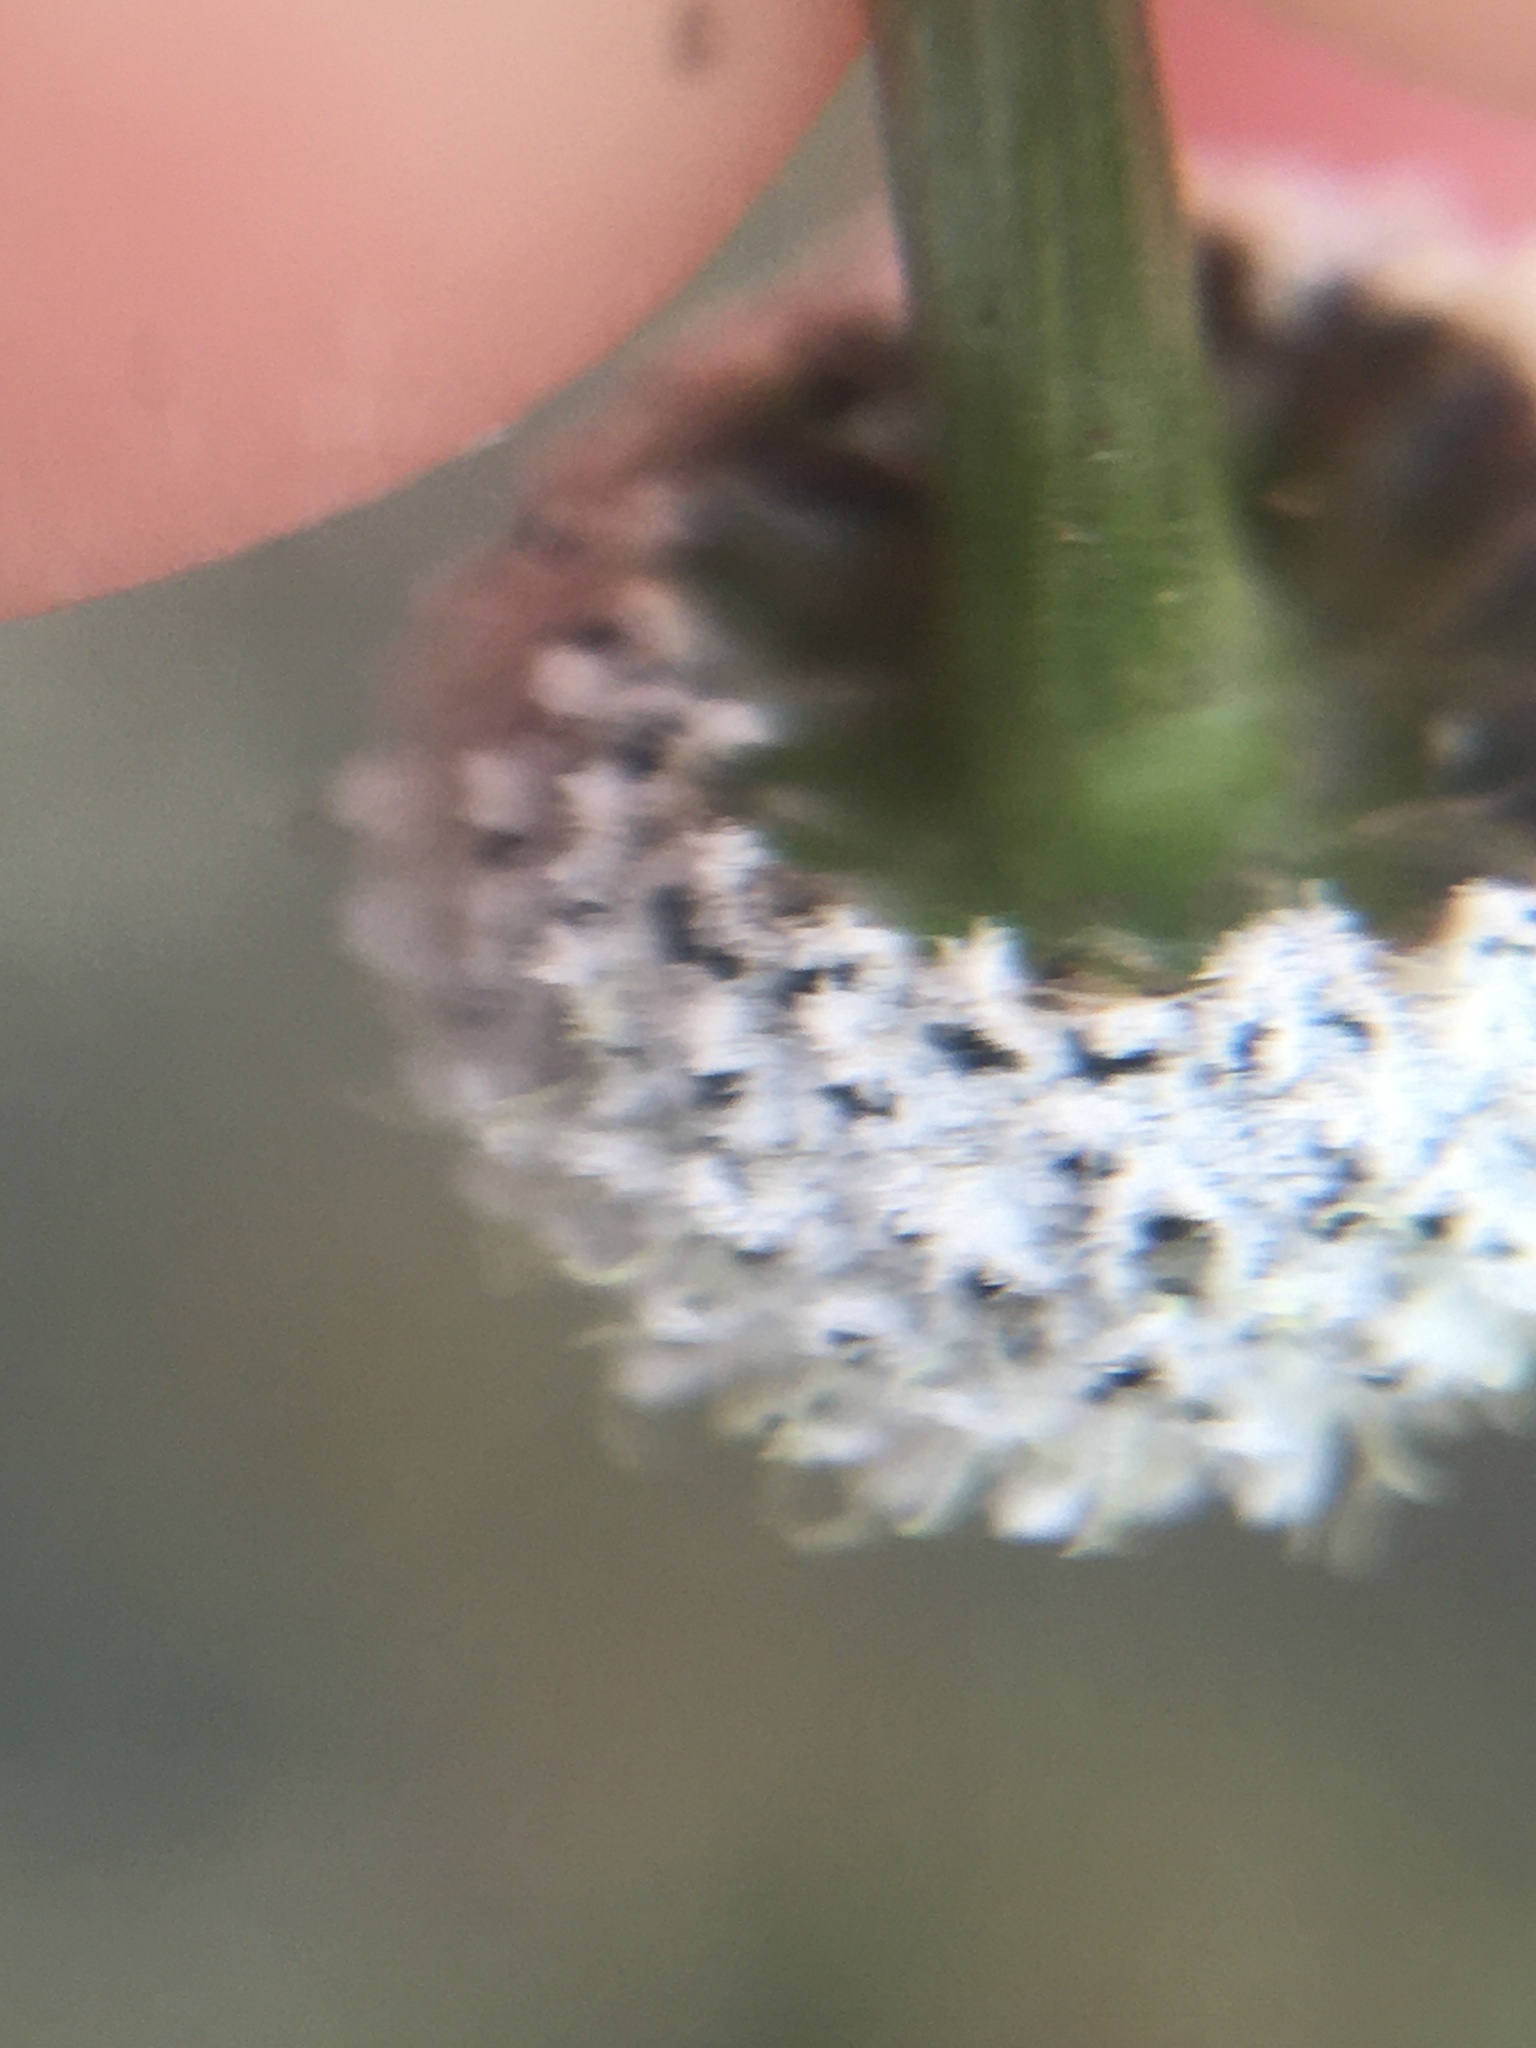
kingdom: Plantae
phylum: Tracheophyta
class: Liliopsida
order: Poales
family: Eriocaulaceae
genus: Eriocaulon
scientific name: Eriocaulon compressum
